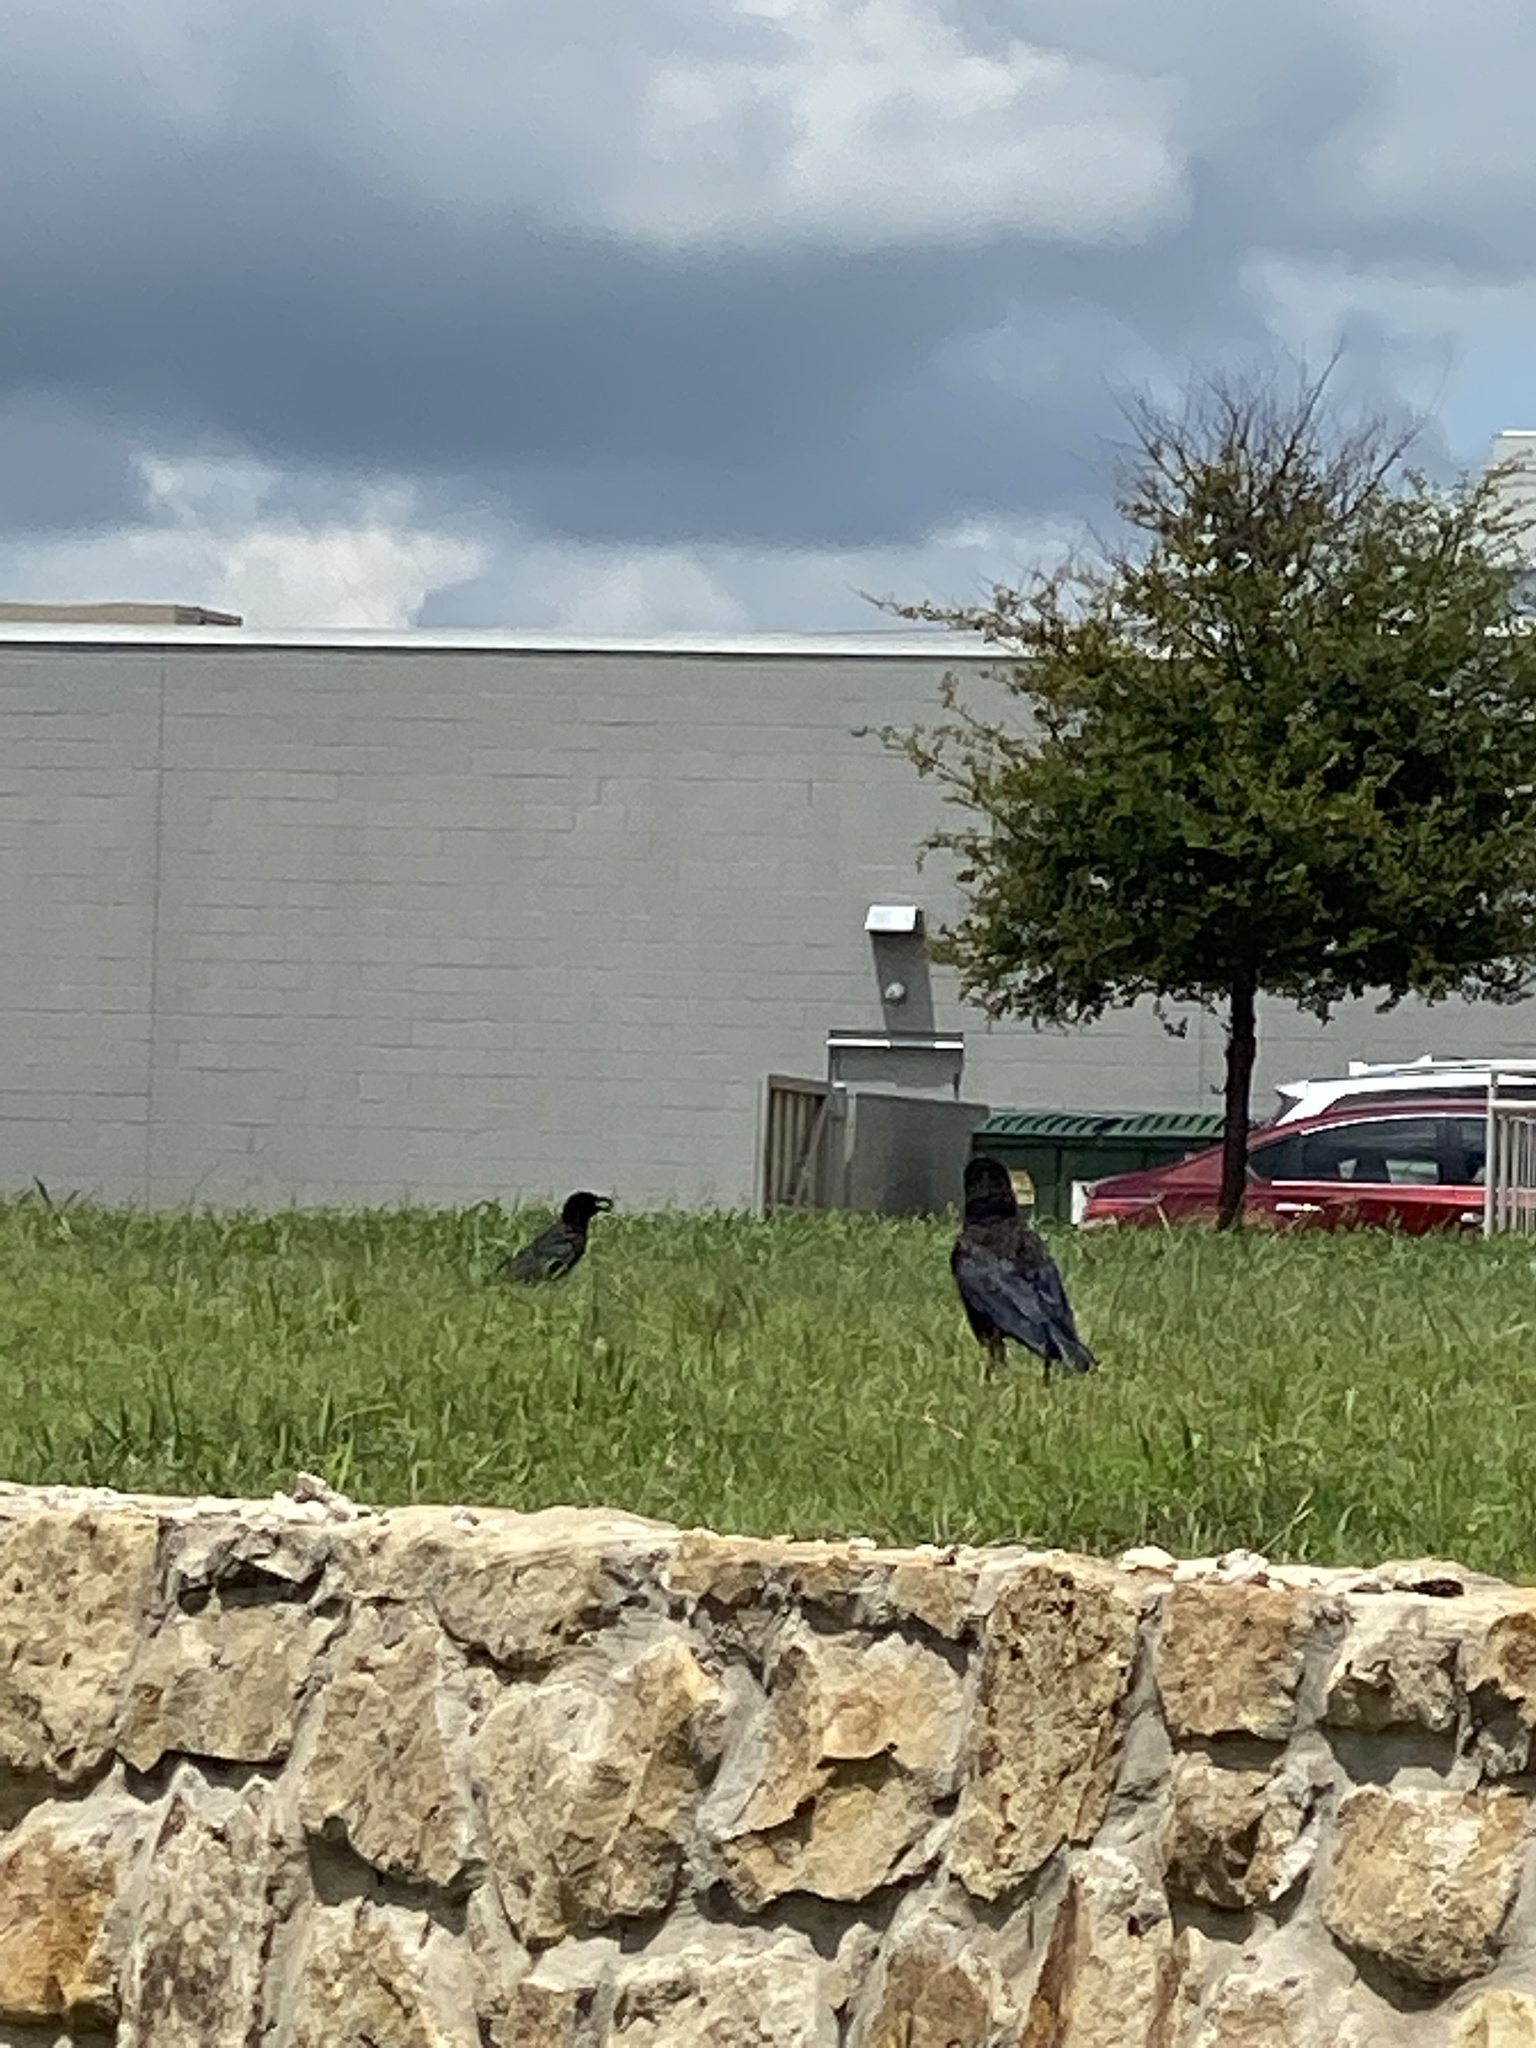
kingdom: Animalia
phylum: Chordata
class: Aves
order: Passeriformes
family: Corvidae
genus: Corvus
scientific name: Corvus brachyrhynchos
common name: American crow
